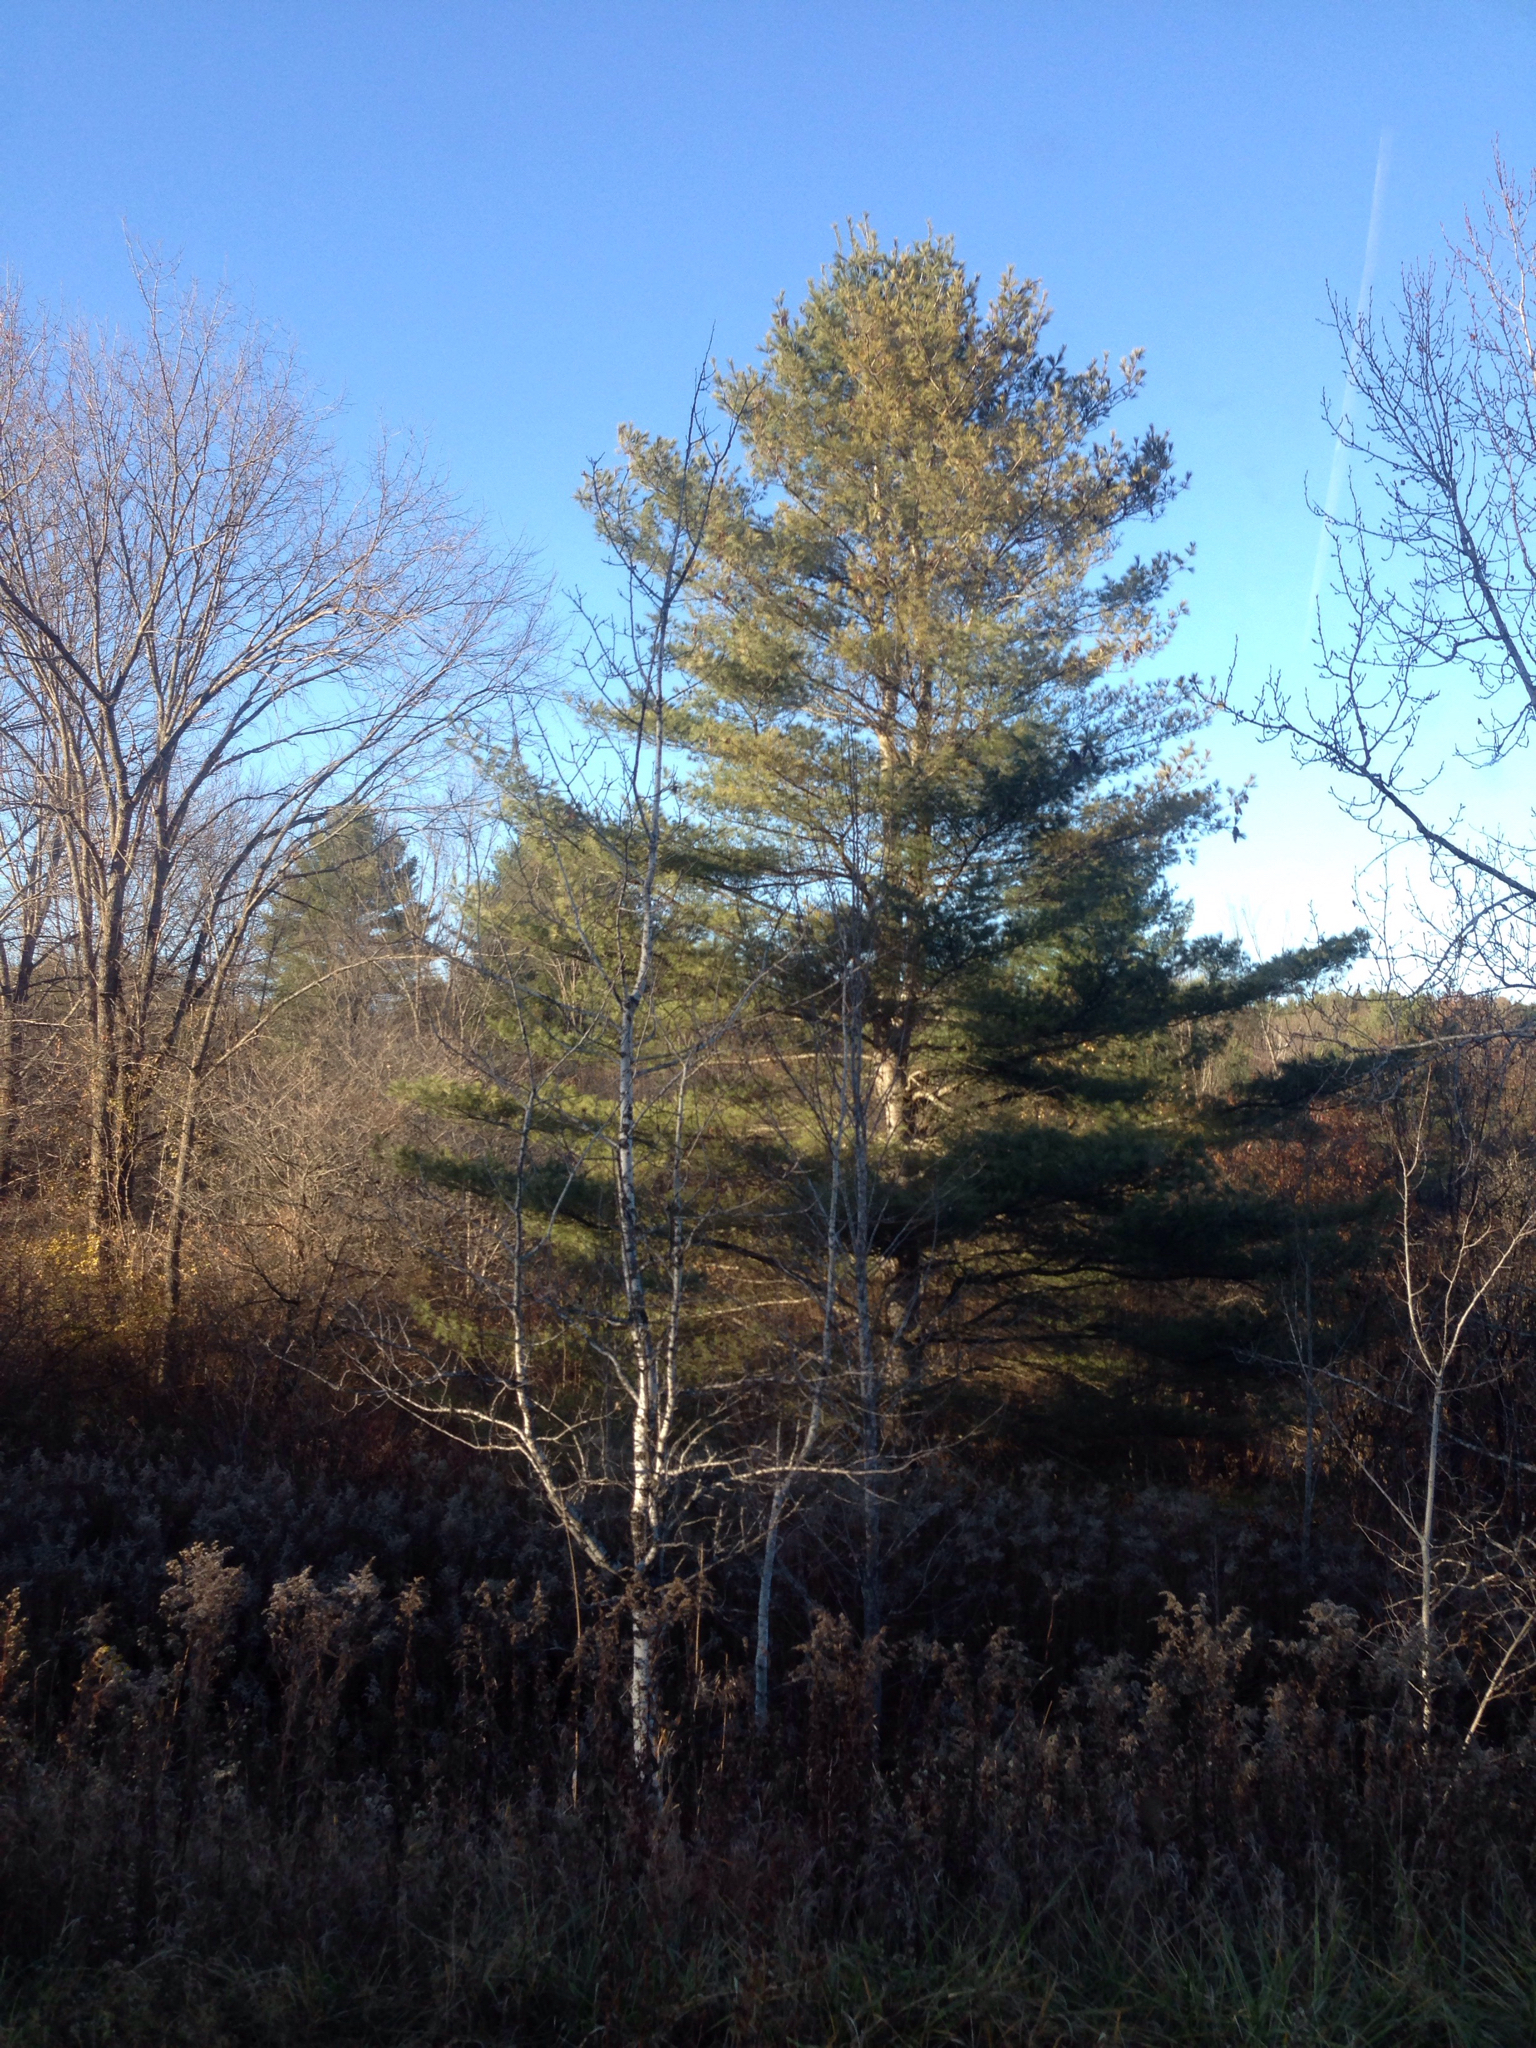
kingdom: Plantae
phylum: Tracheophyta
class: Pinopsida
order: Pinales
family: Pinaceae
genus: Pinus
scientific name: Pinus strobus
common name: Weymouth pine
